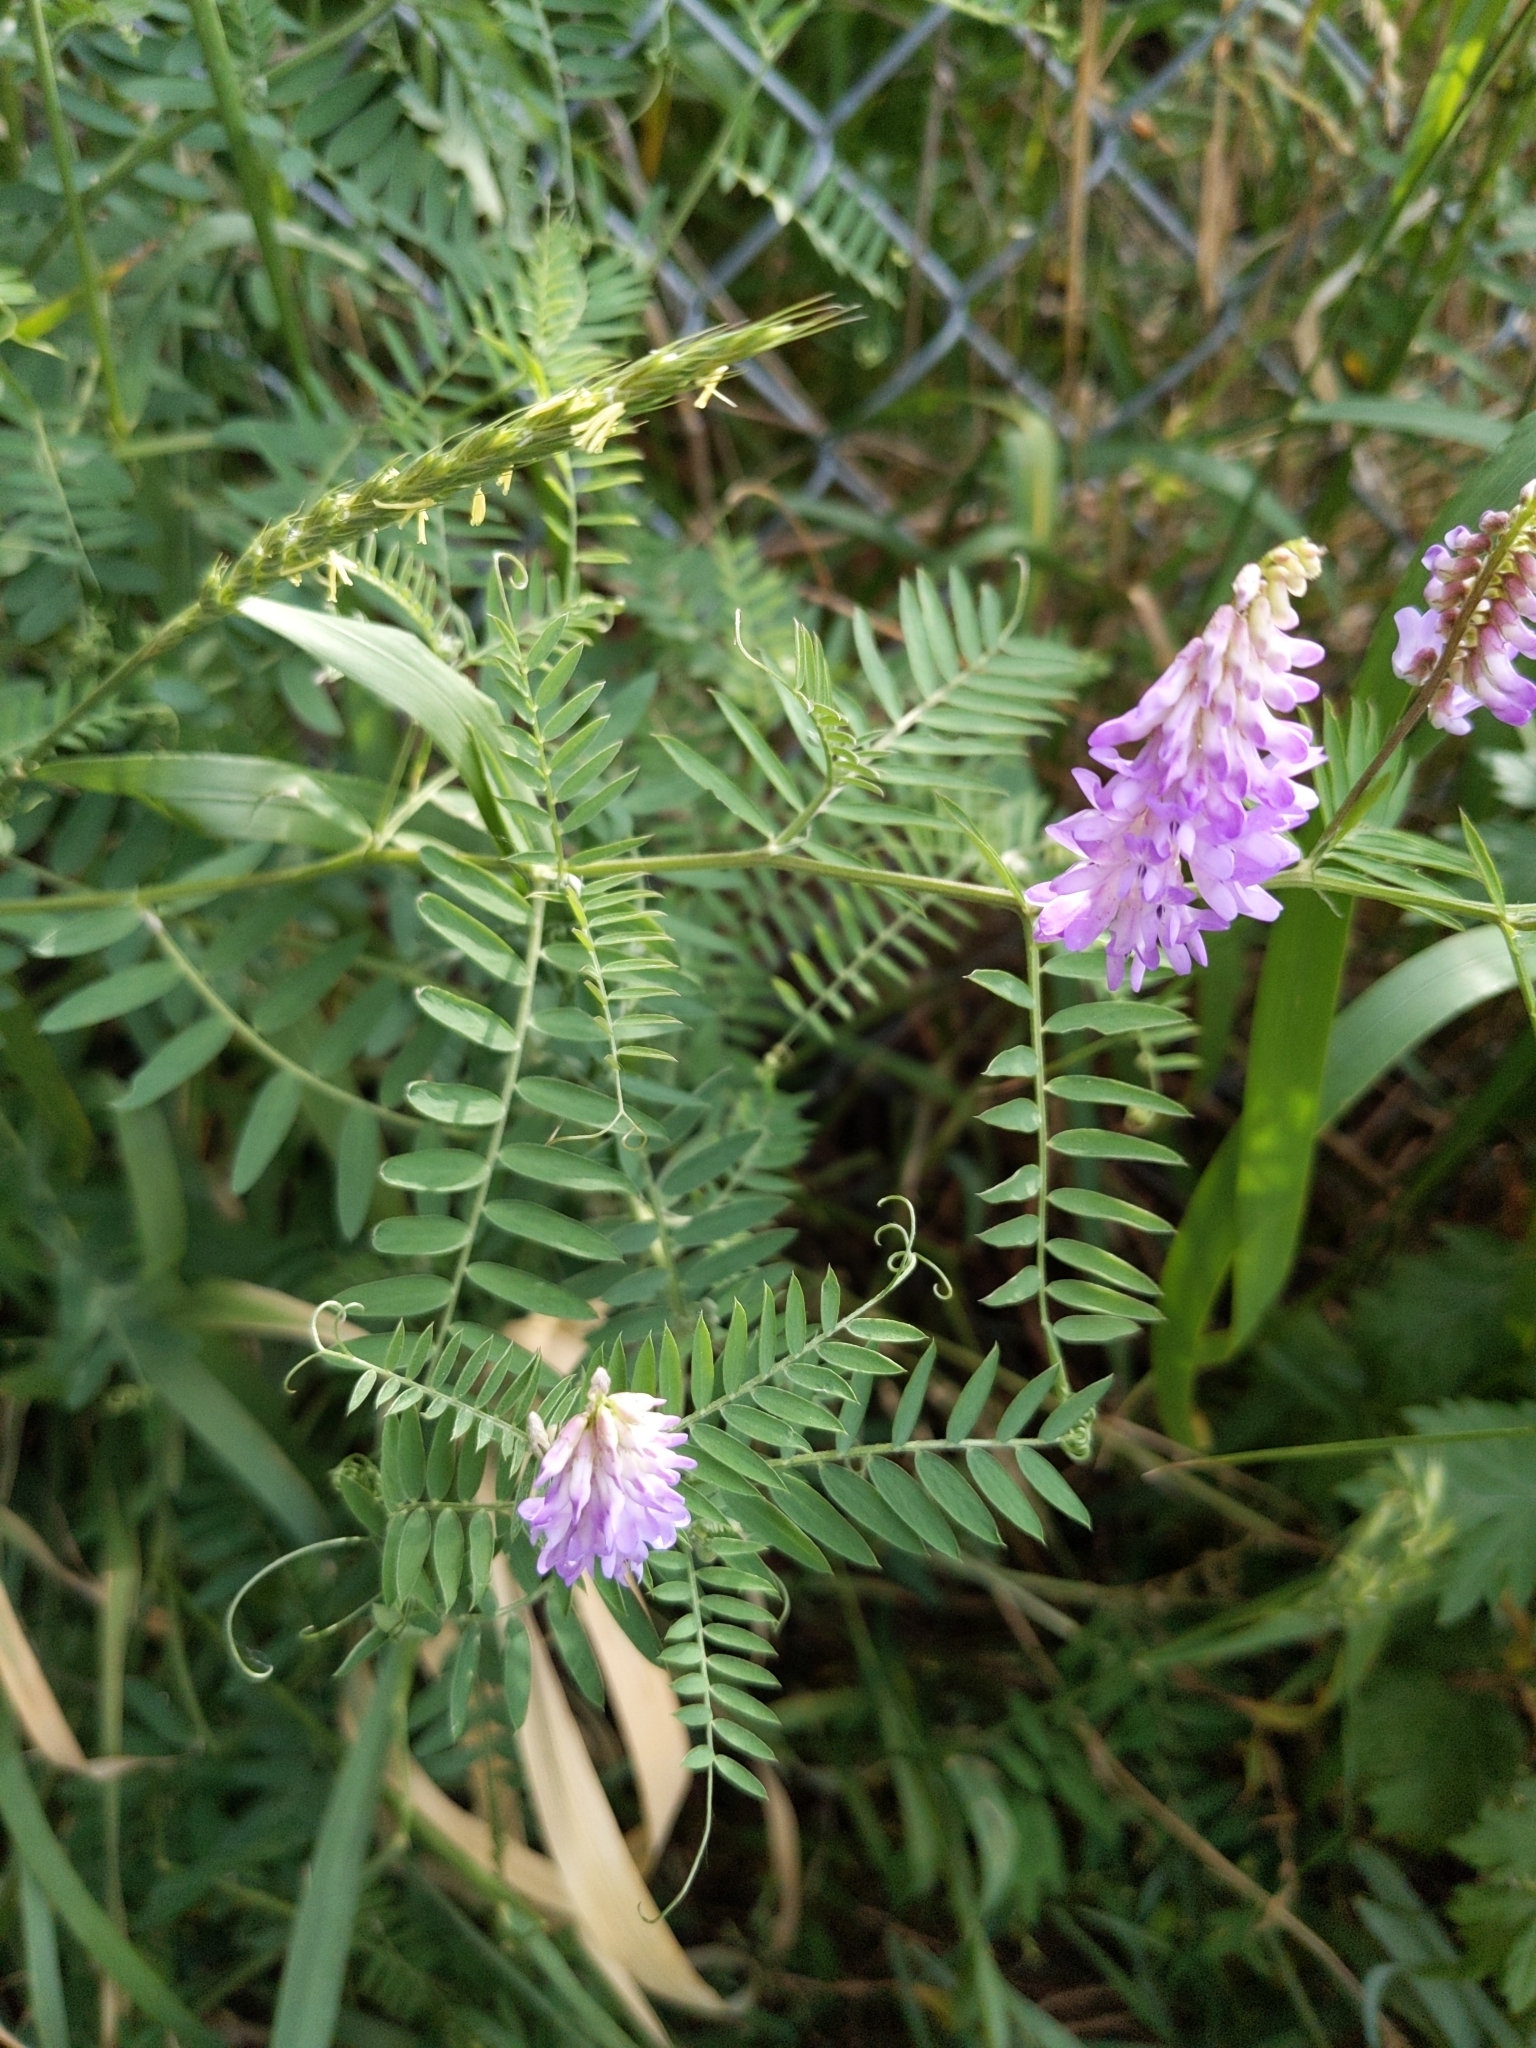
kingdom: Plantae
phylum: Tracheophyta
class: Magnoliopsida
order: Fabales
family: Fabaceae
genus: Vicia
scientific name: Vicia cracca
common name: Bird vetch
